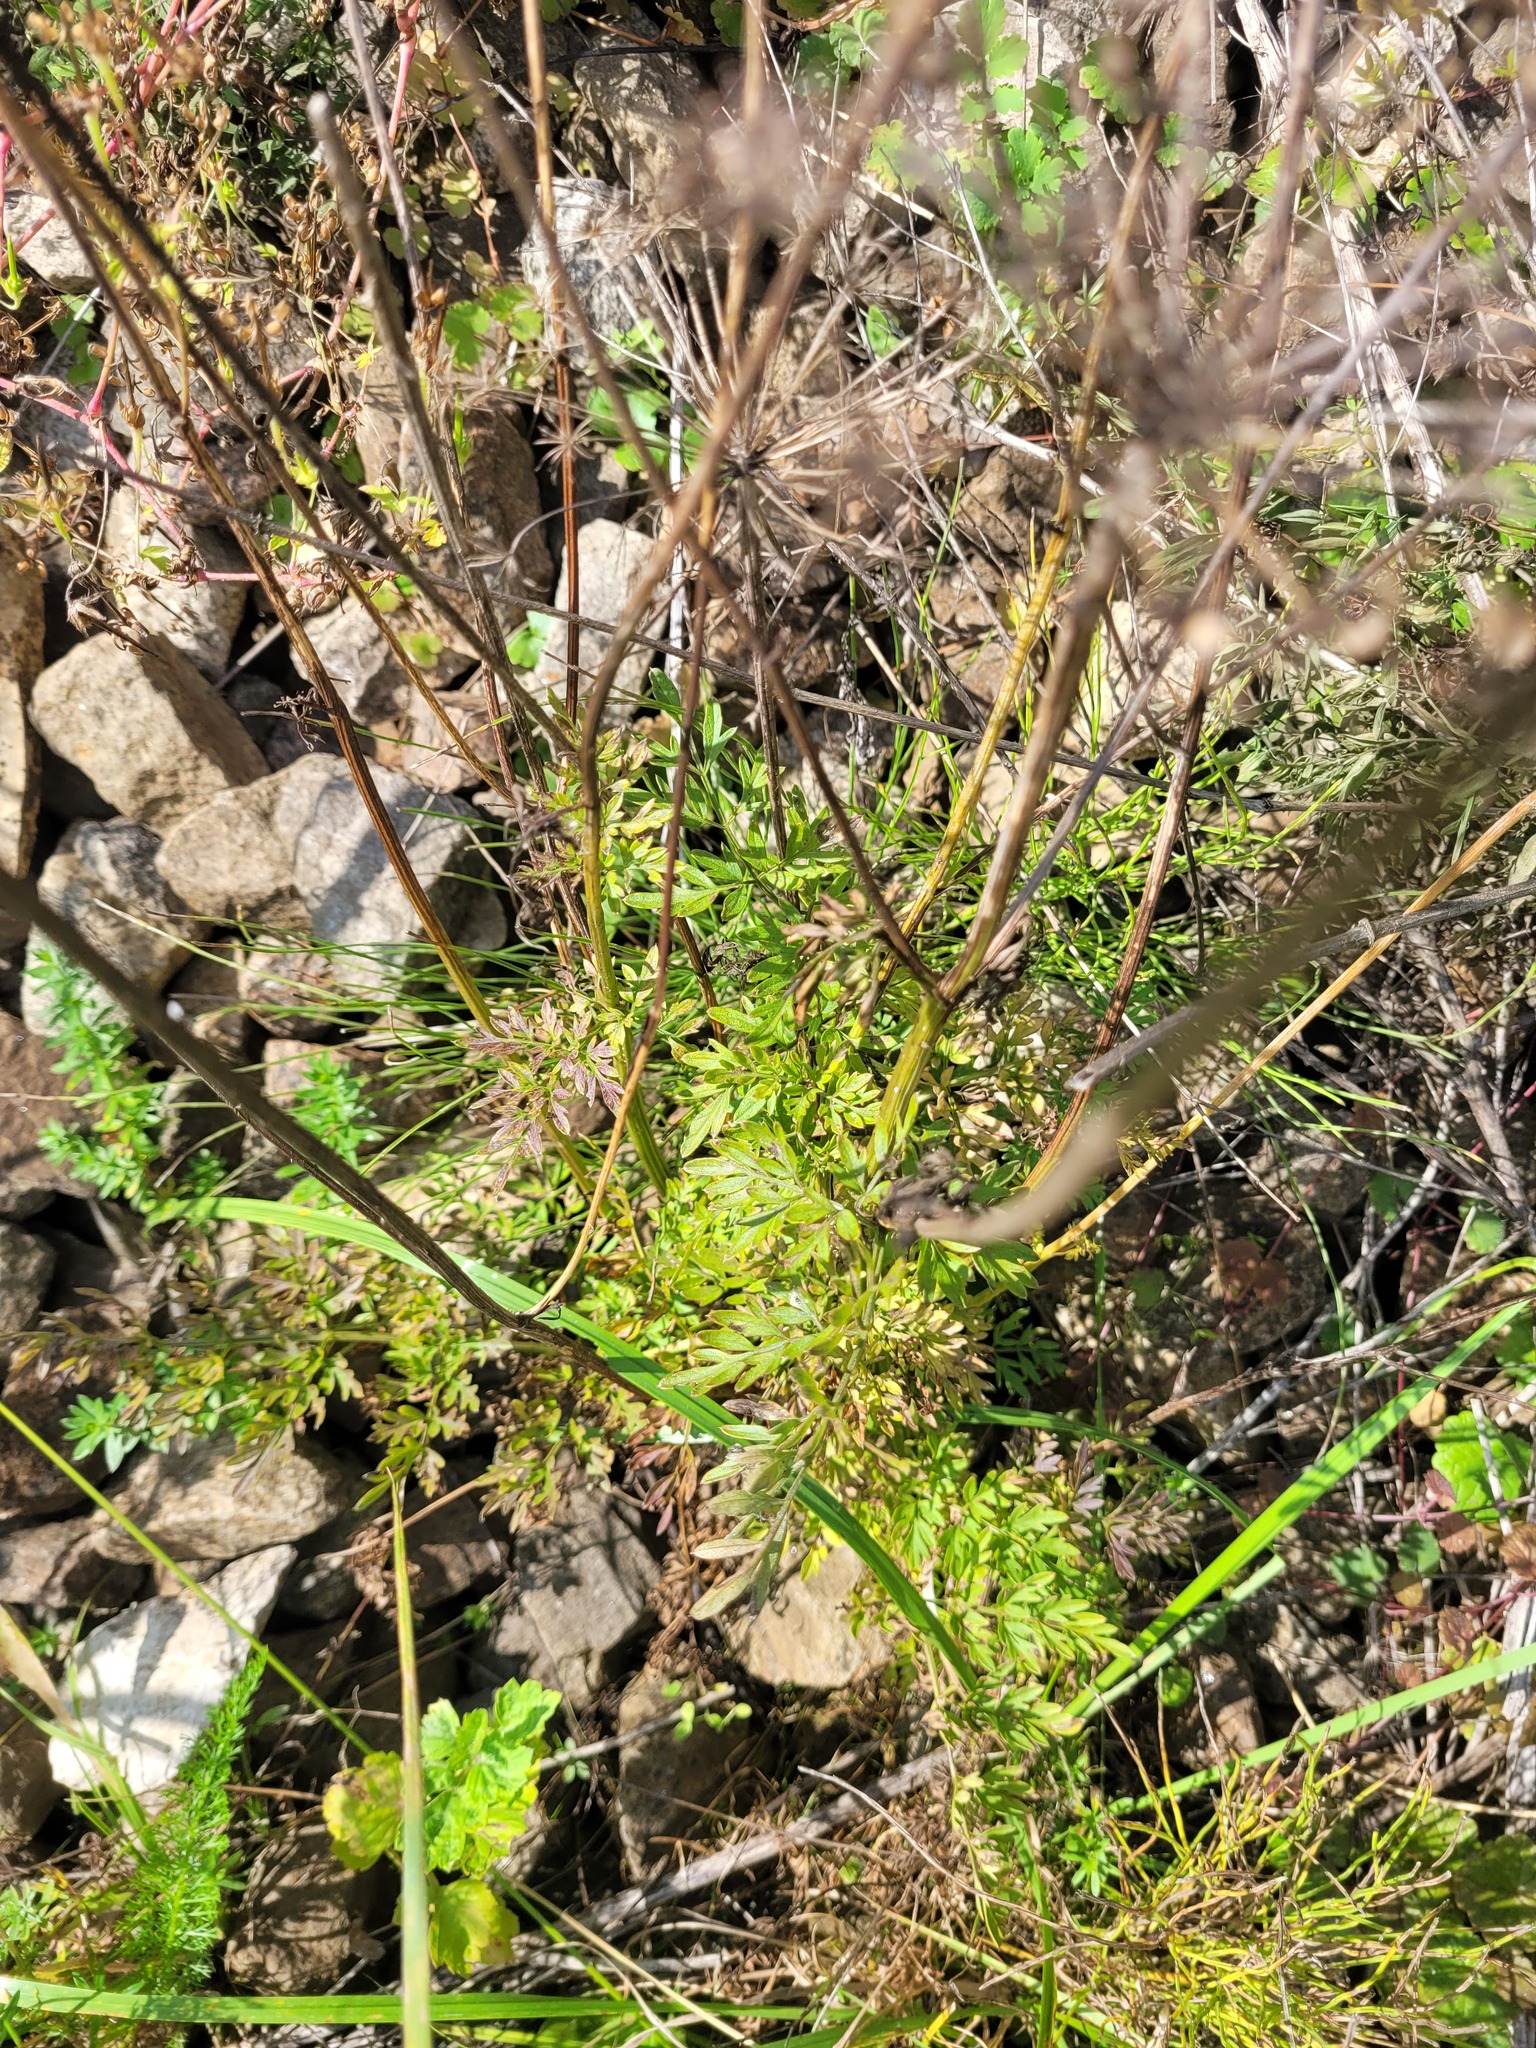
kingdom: Plantae
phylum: Tracheophyta
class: Magnoliopsida
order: Apiales
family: Apiaceae
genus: Selinum
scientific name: Selinum carvifolia
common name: Cambridge milk-parsley
